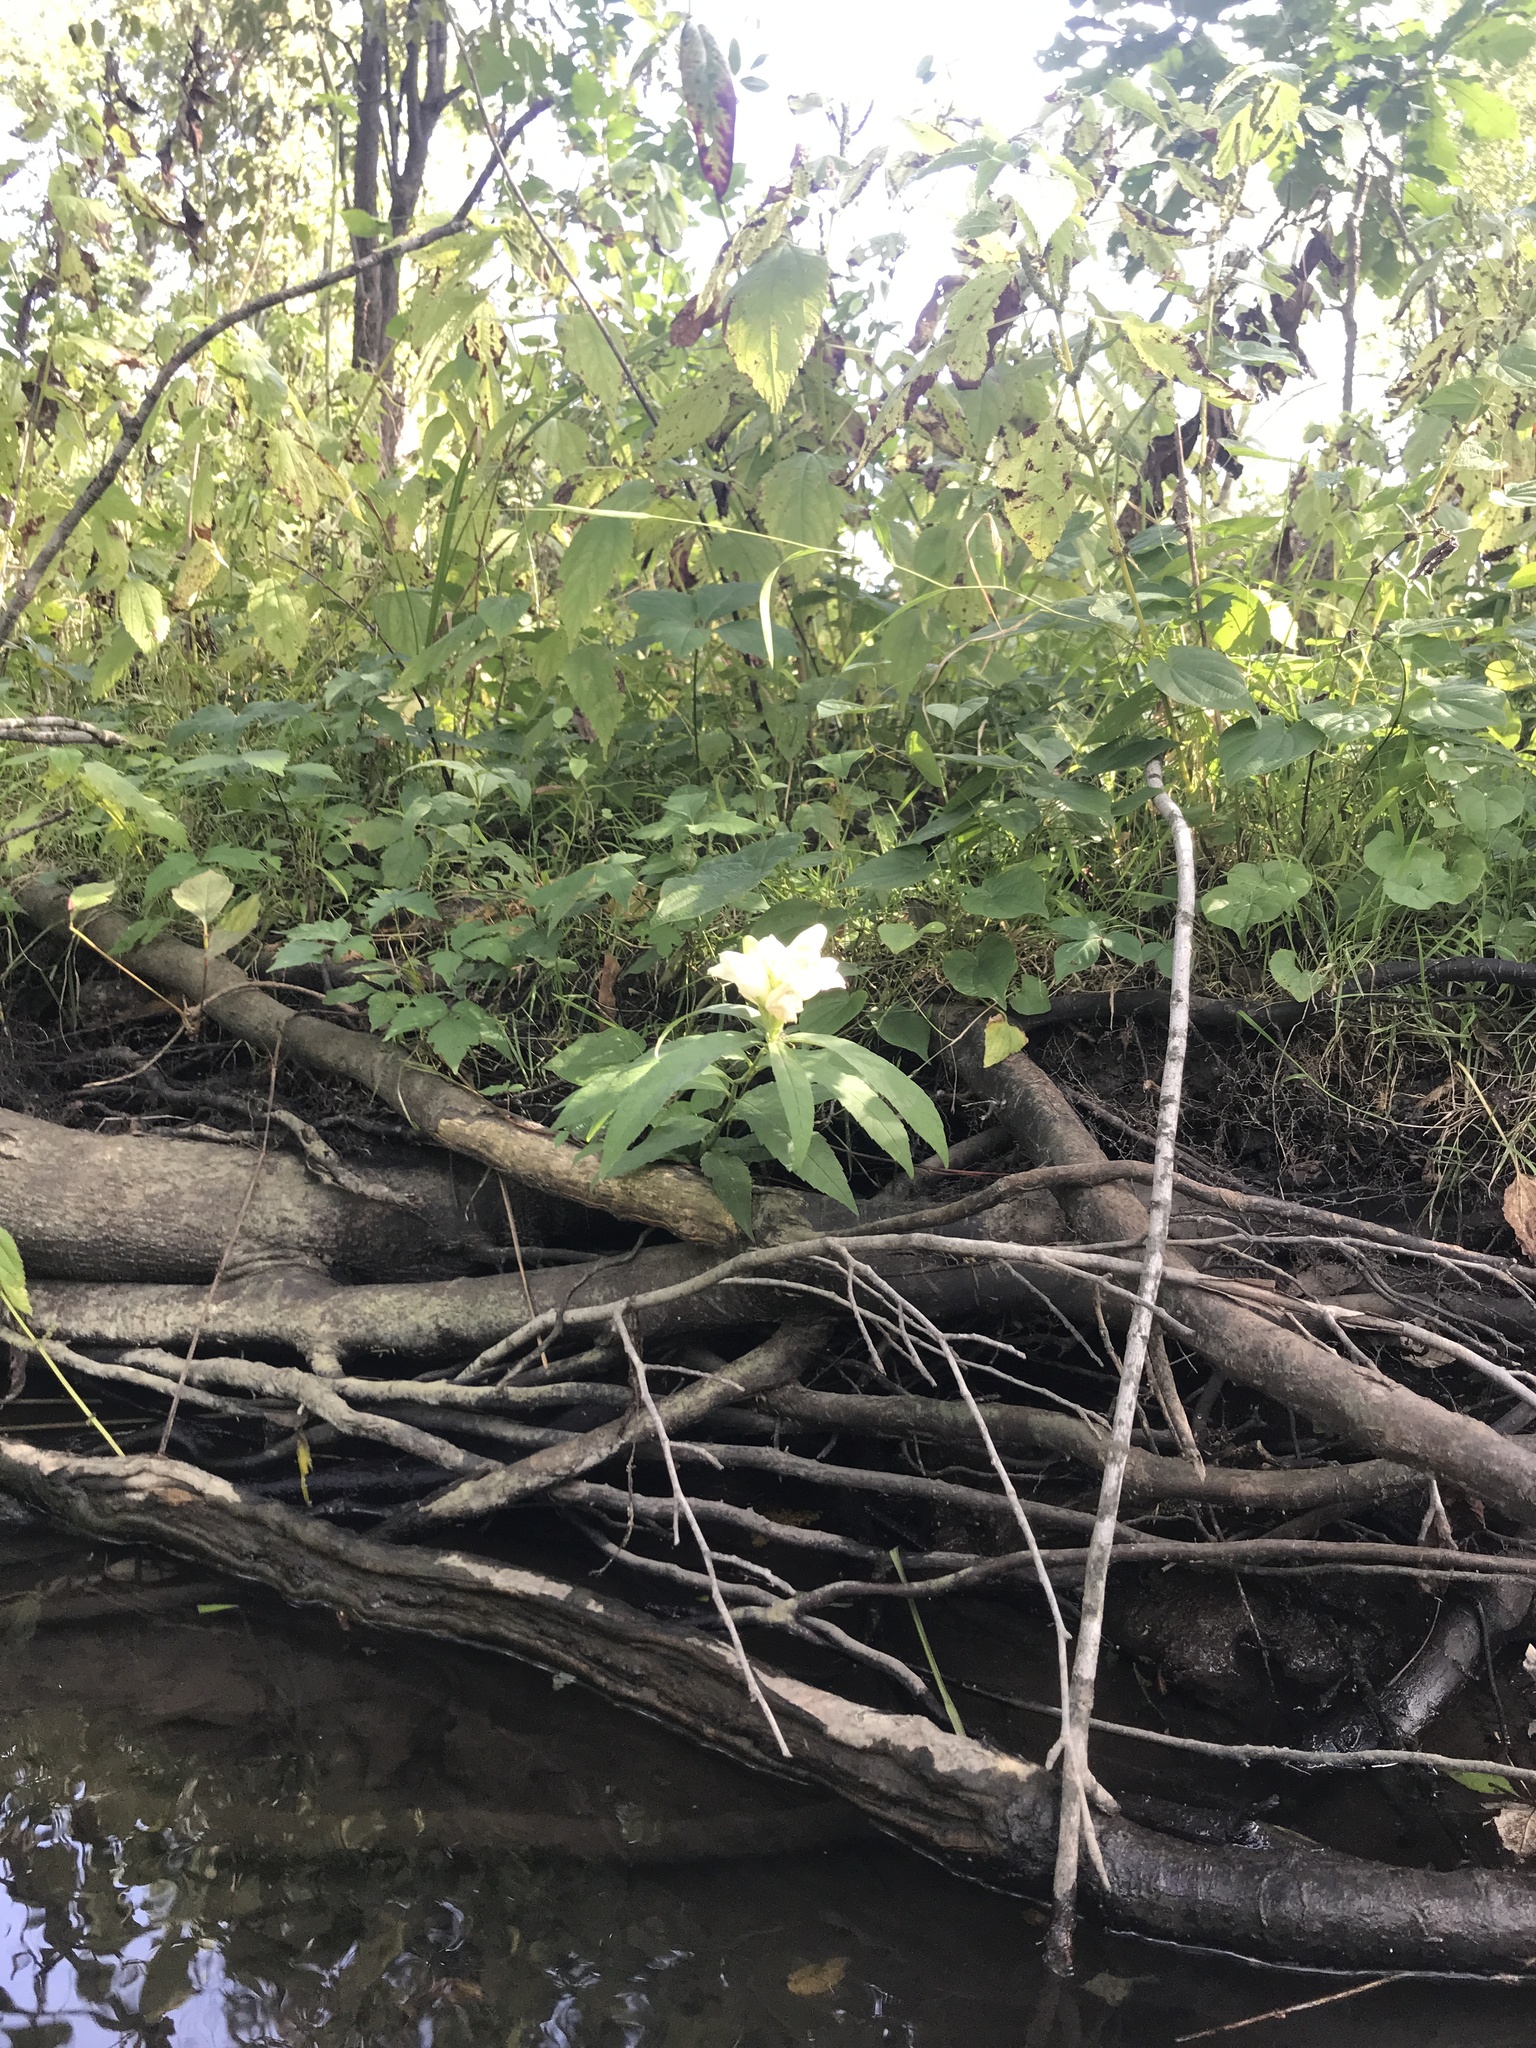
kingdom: Plantae
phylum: Tracheophyta
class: Magnoliopsida
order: Lamiales
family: Plantaginaceae
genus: Chelone
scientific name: Chelone glabra
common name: Snakehead
